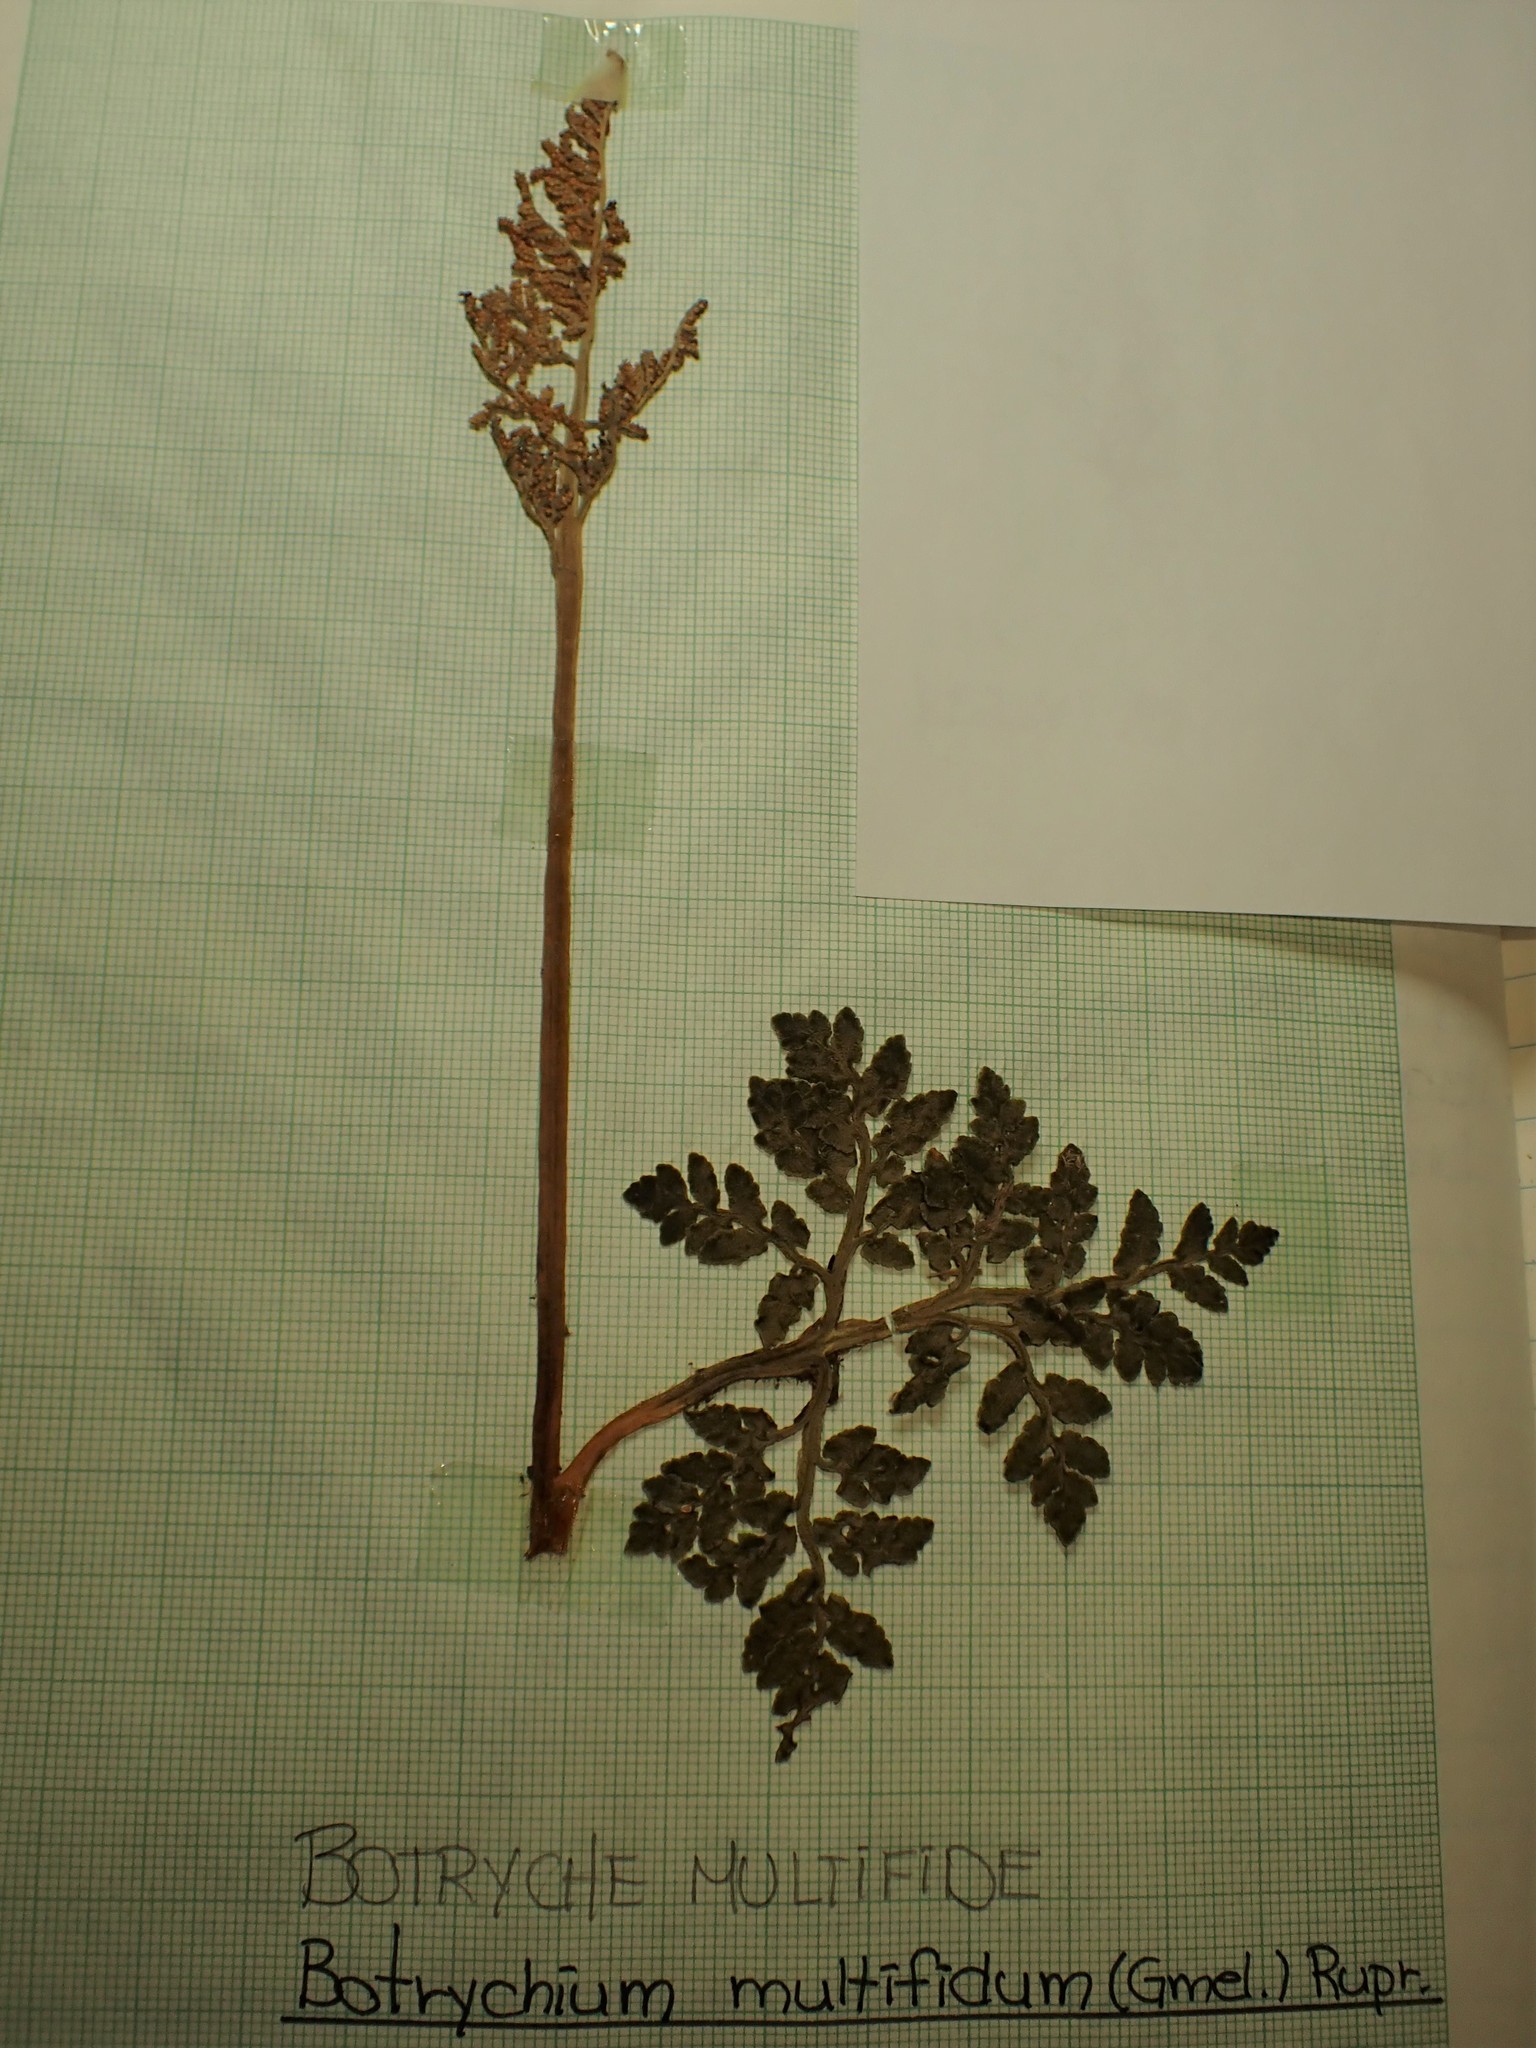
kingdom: Plantae
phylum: Tracheophyta
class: Polypodiopsida
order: Ophioglossales
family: Ophioglossaceae
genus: Sceptridium
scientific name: Sceptridium multifidum
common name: Leathery grape fern
